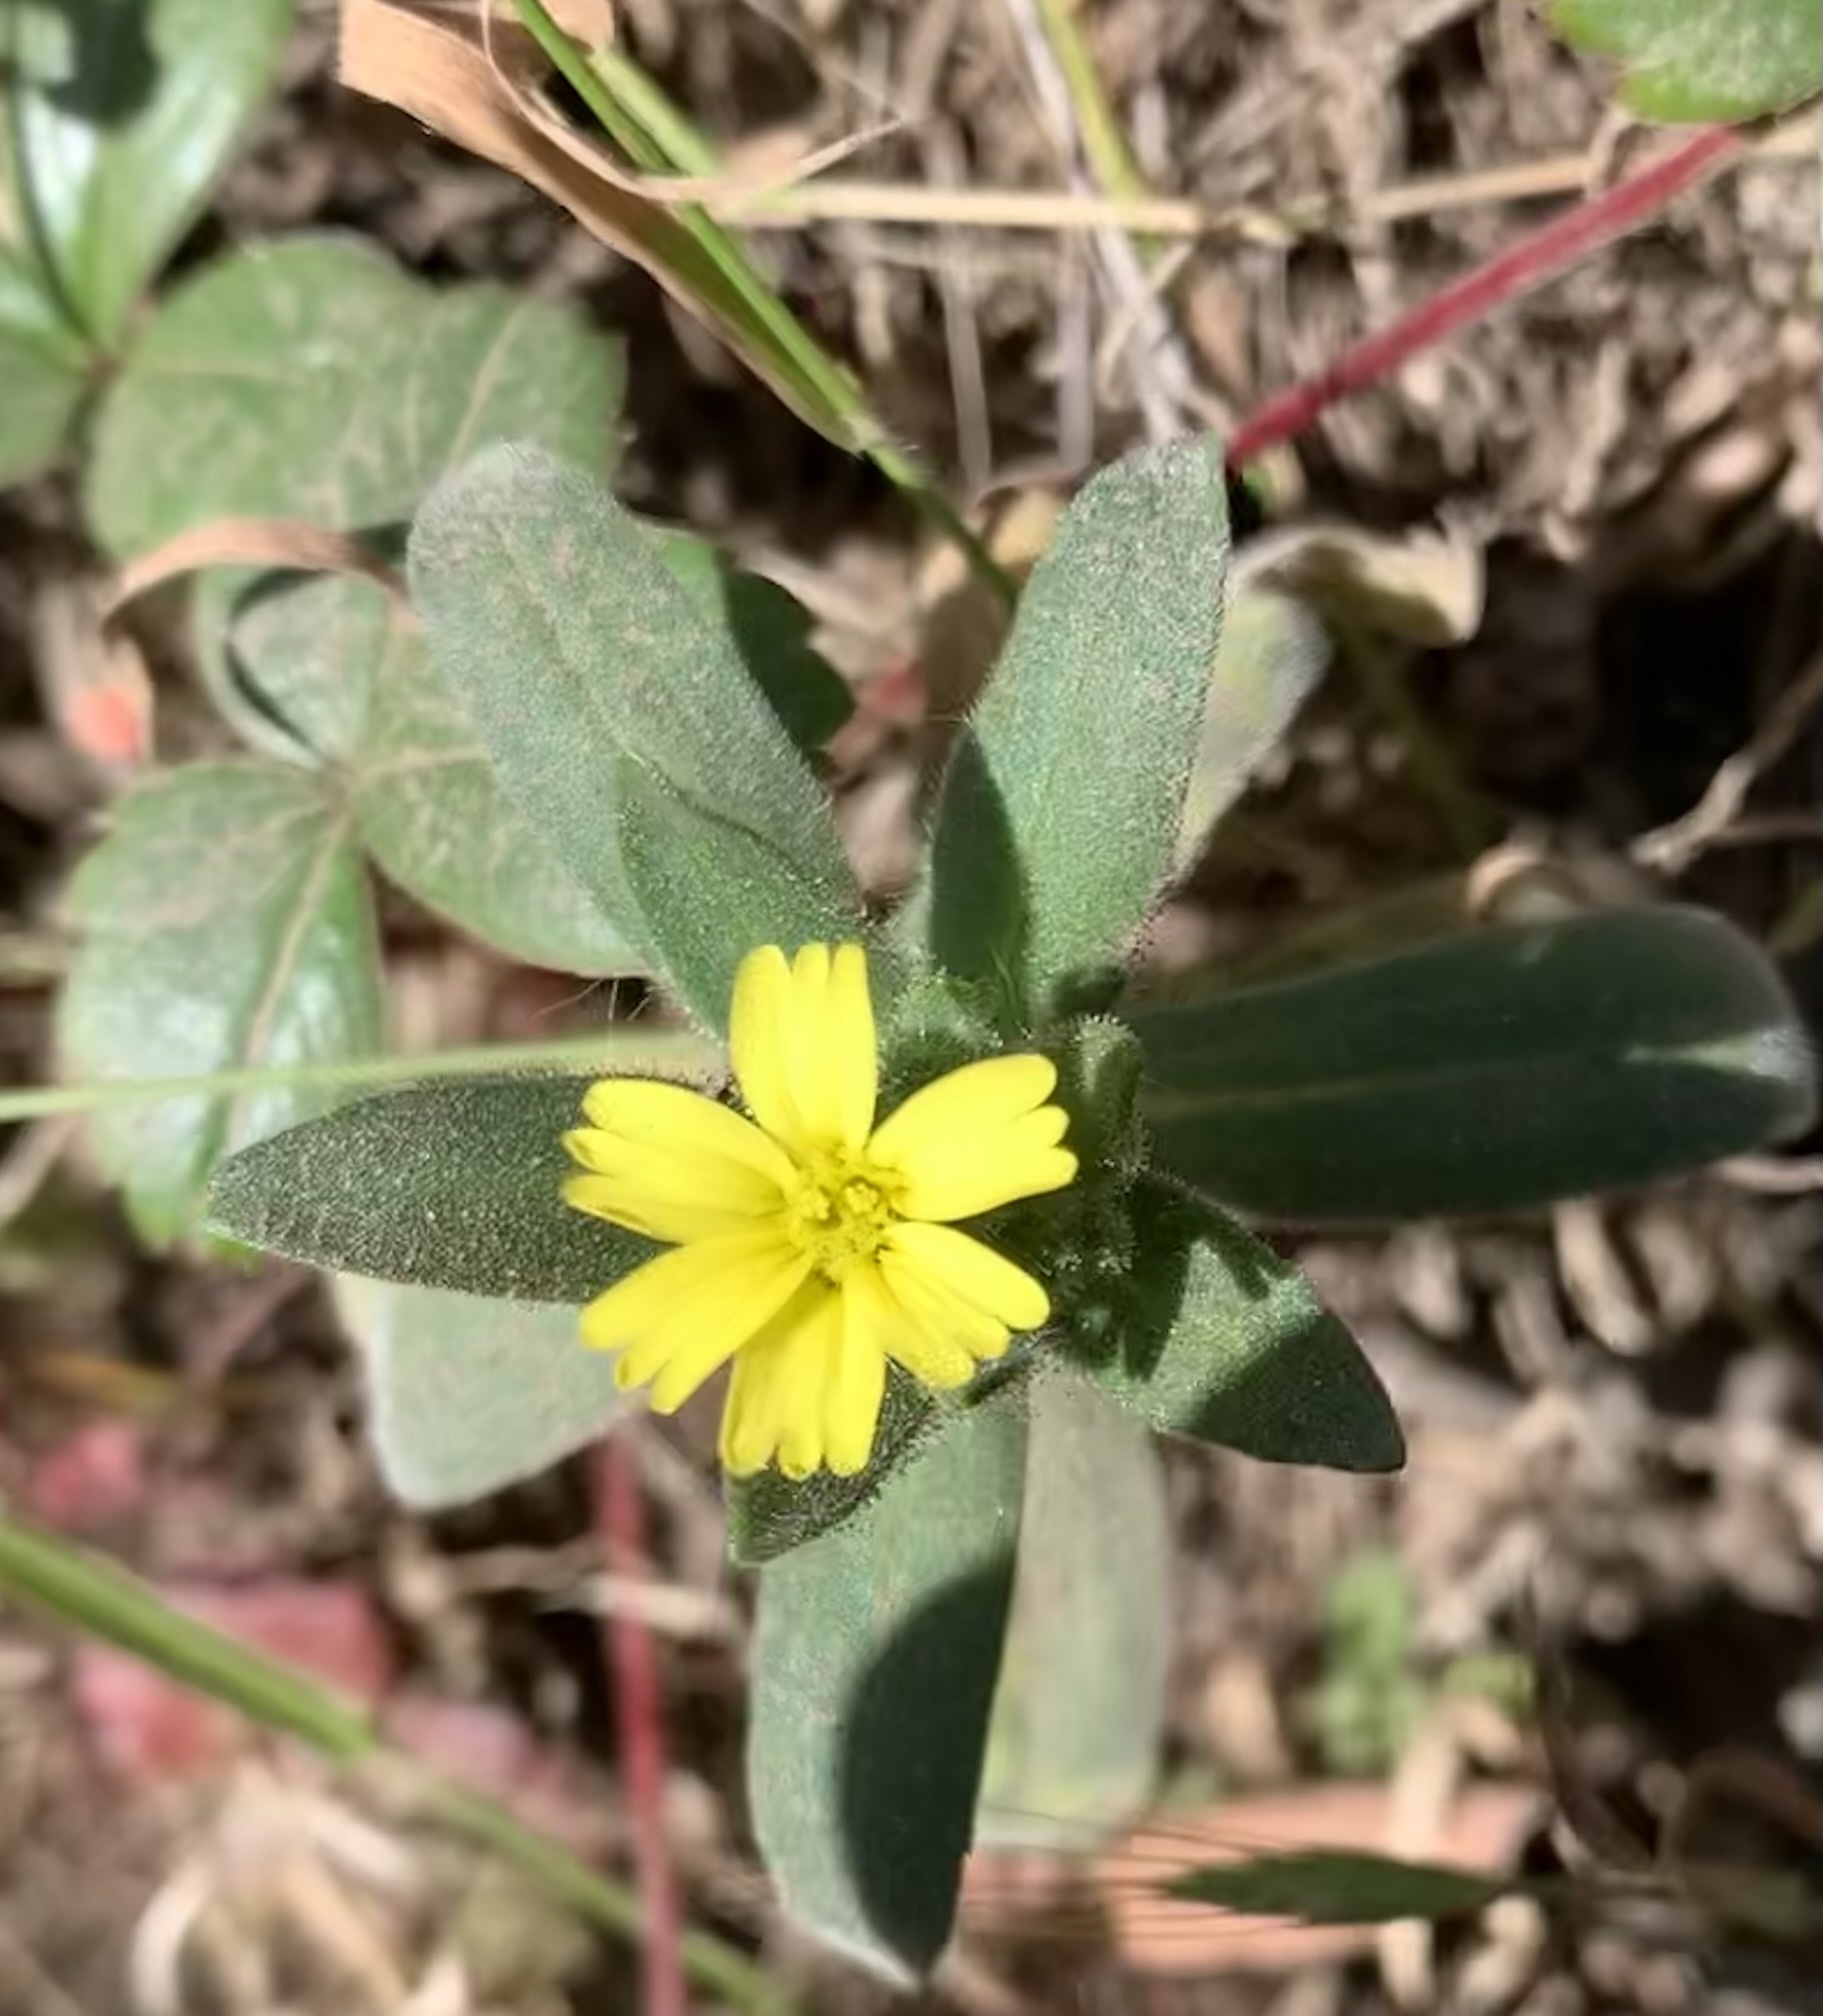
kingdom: Plantae
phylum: Tracheophyta
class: Magnoliopsida
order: Asterales
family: Asteraceae
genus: Madia
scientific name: Madia gracilis
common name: Grassy tarweed
